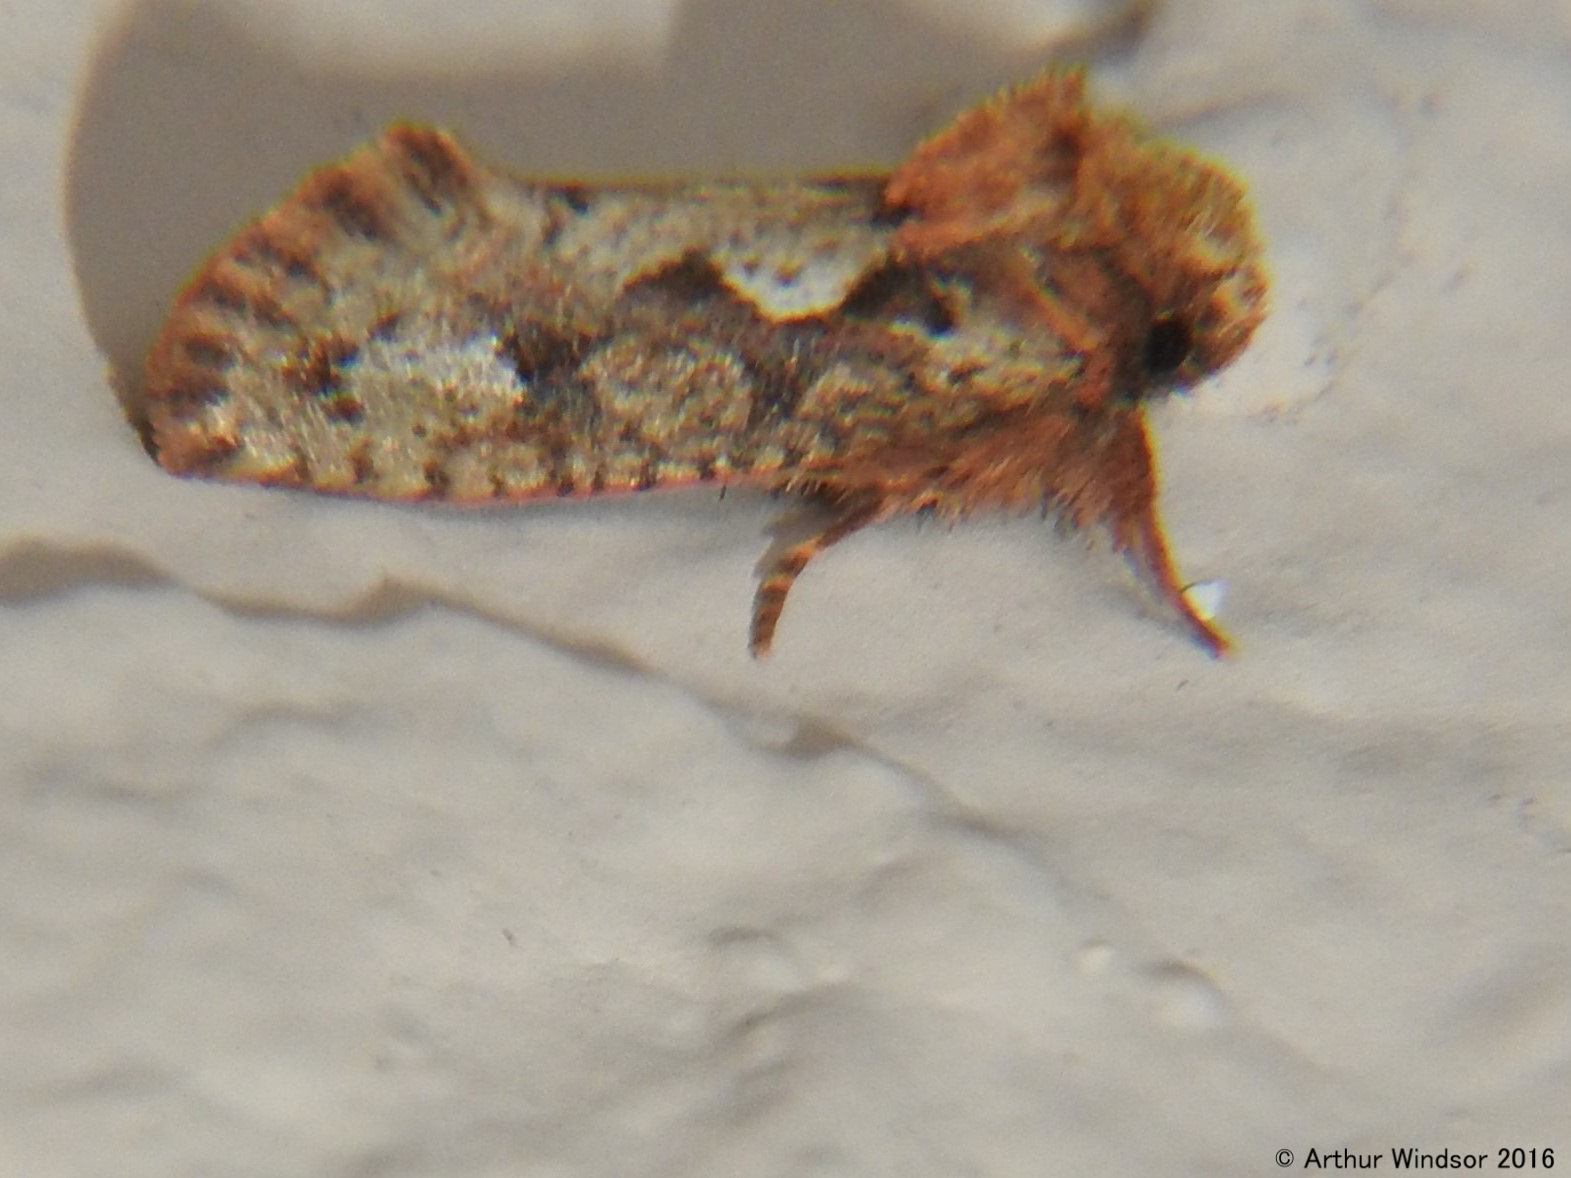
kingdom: Animalia
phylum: Arthropoda
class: Insecta
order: Lepidoptera
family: Tineidae
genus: Acrolophus
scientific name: Acrolophus walsinghami
